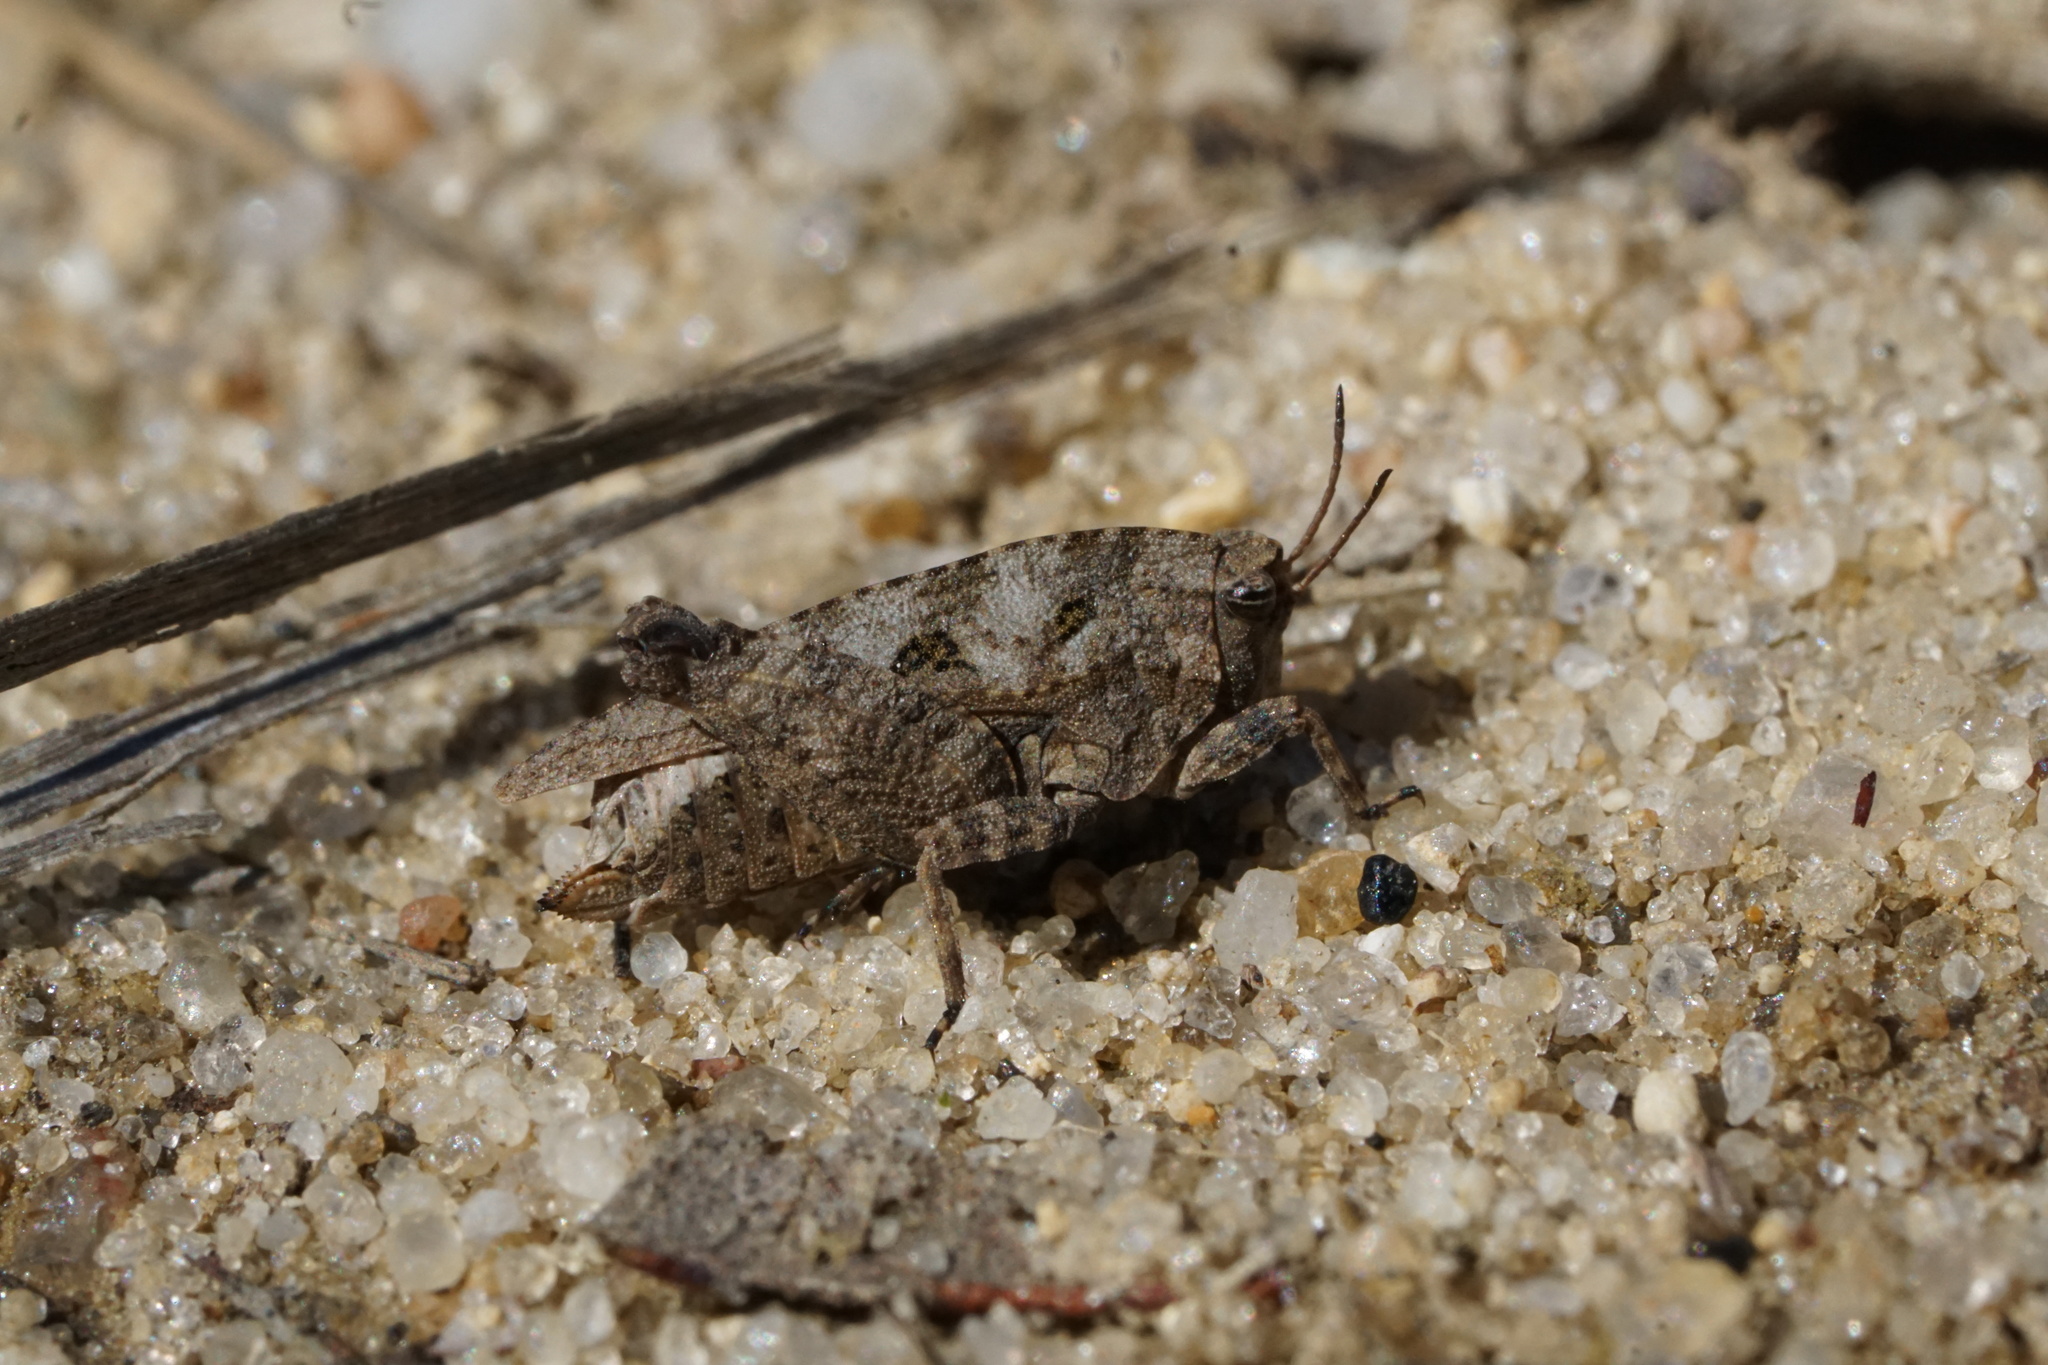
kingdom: Animalia
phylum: Arthropoda
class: Insecta
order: Orthoptera
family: Tetrigidae
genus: Nomotettix
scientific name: Nomotettix cristatus
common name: Crested grouse locust
